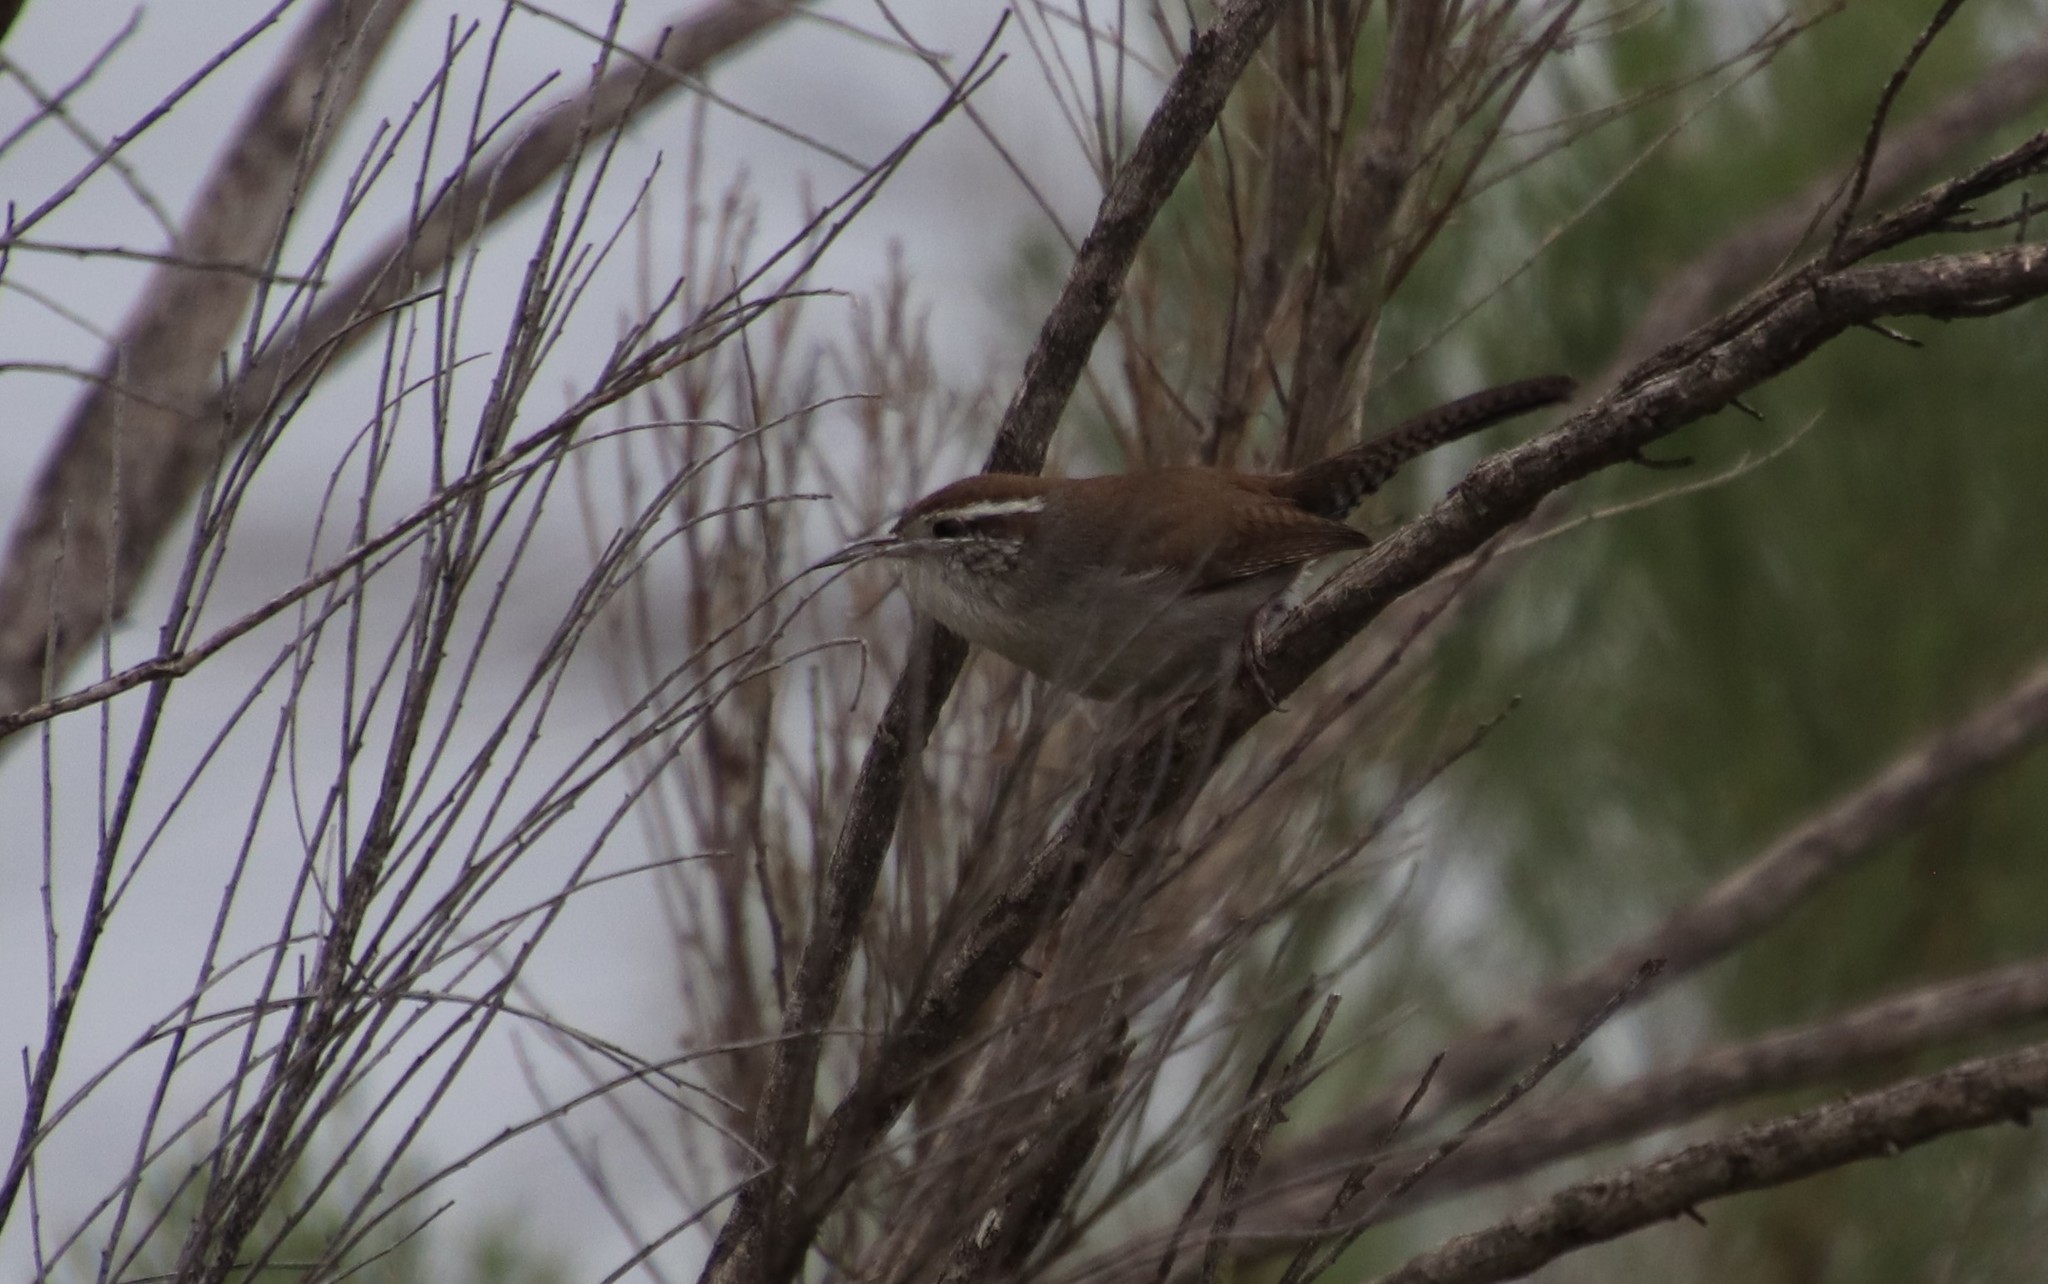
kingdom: Animalia
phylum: Chordata
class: Aves
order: Passeriformes
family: Troglodytidae
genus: Thryomanes
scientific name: Thryomanes bewickii
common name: Bewick's wren
